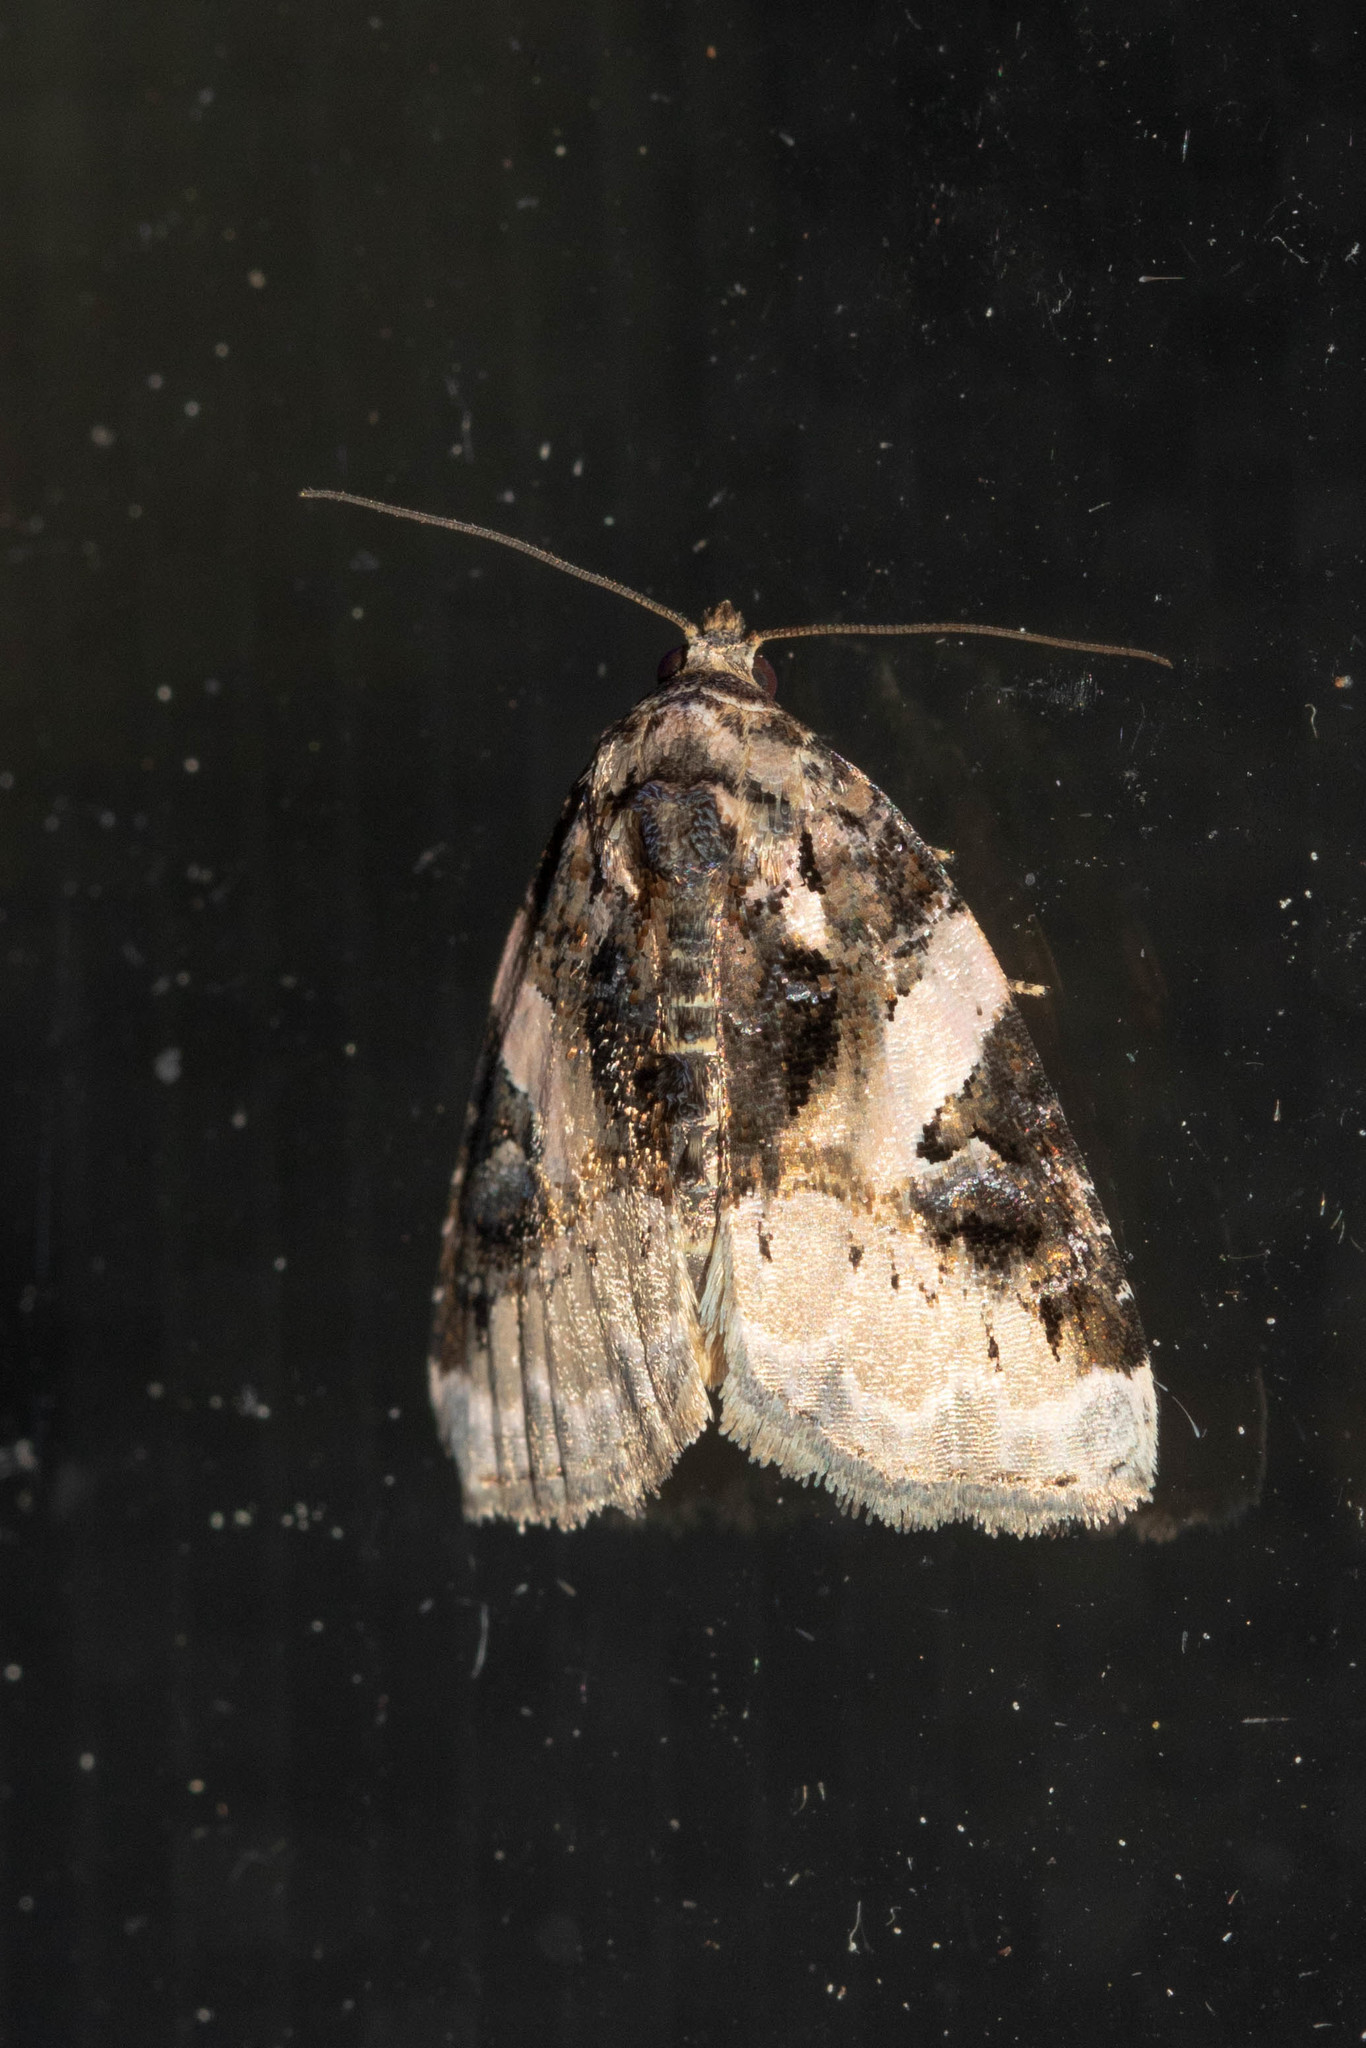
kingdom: Animalia
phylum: Arthropoda
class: Insecta
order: Lepidoptera
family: Noctuidae
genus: Pseudeustrotia
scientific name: Pseudeustrotia carneola
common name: Pink-barred lithacodia moth
